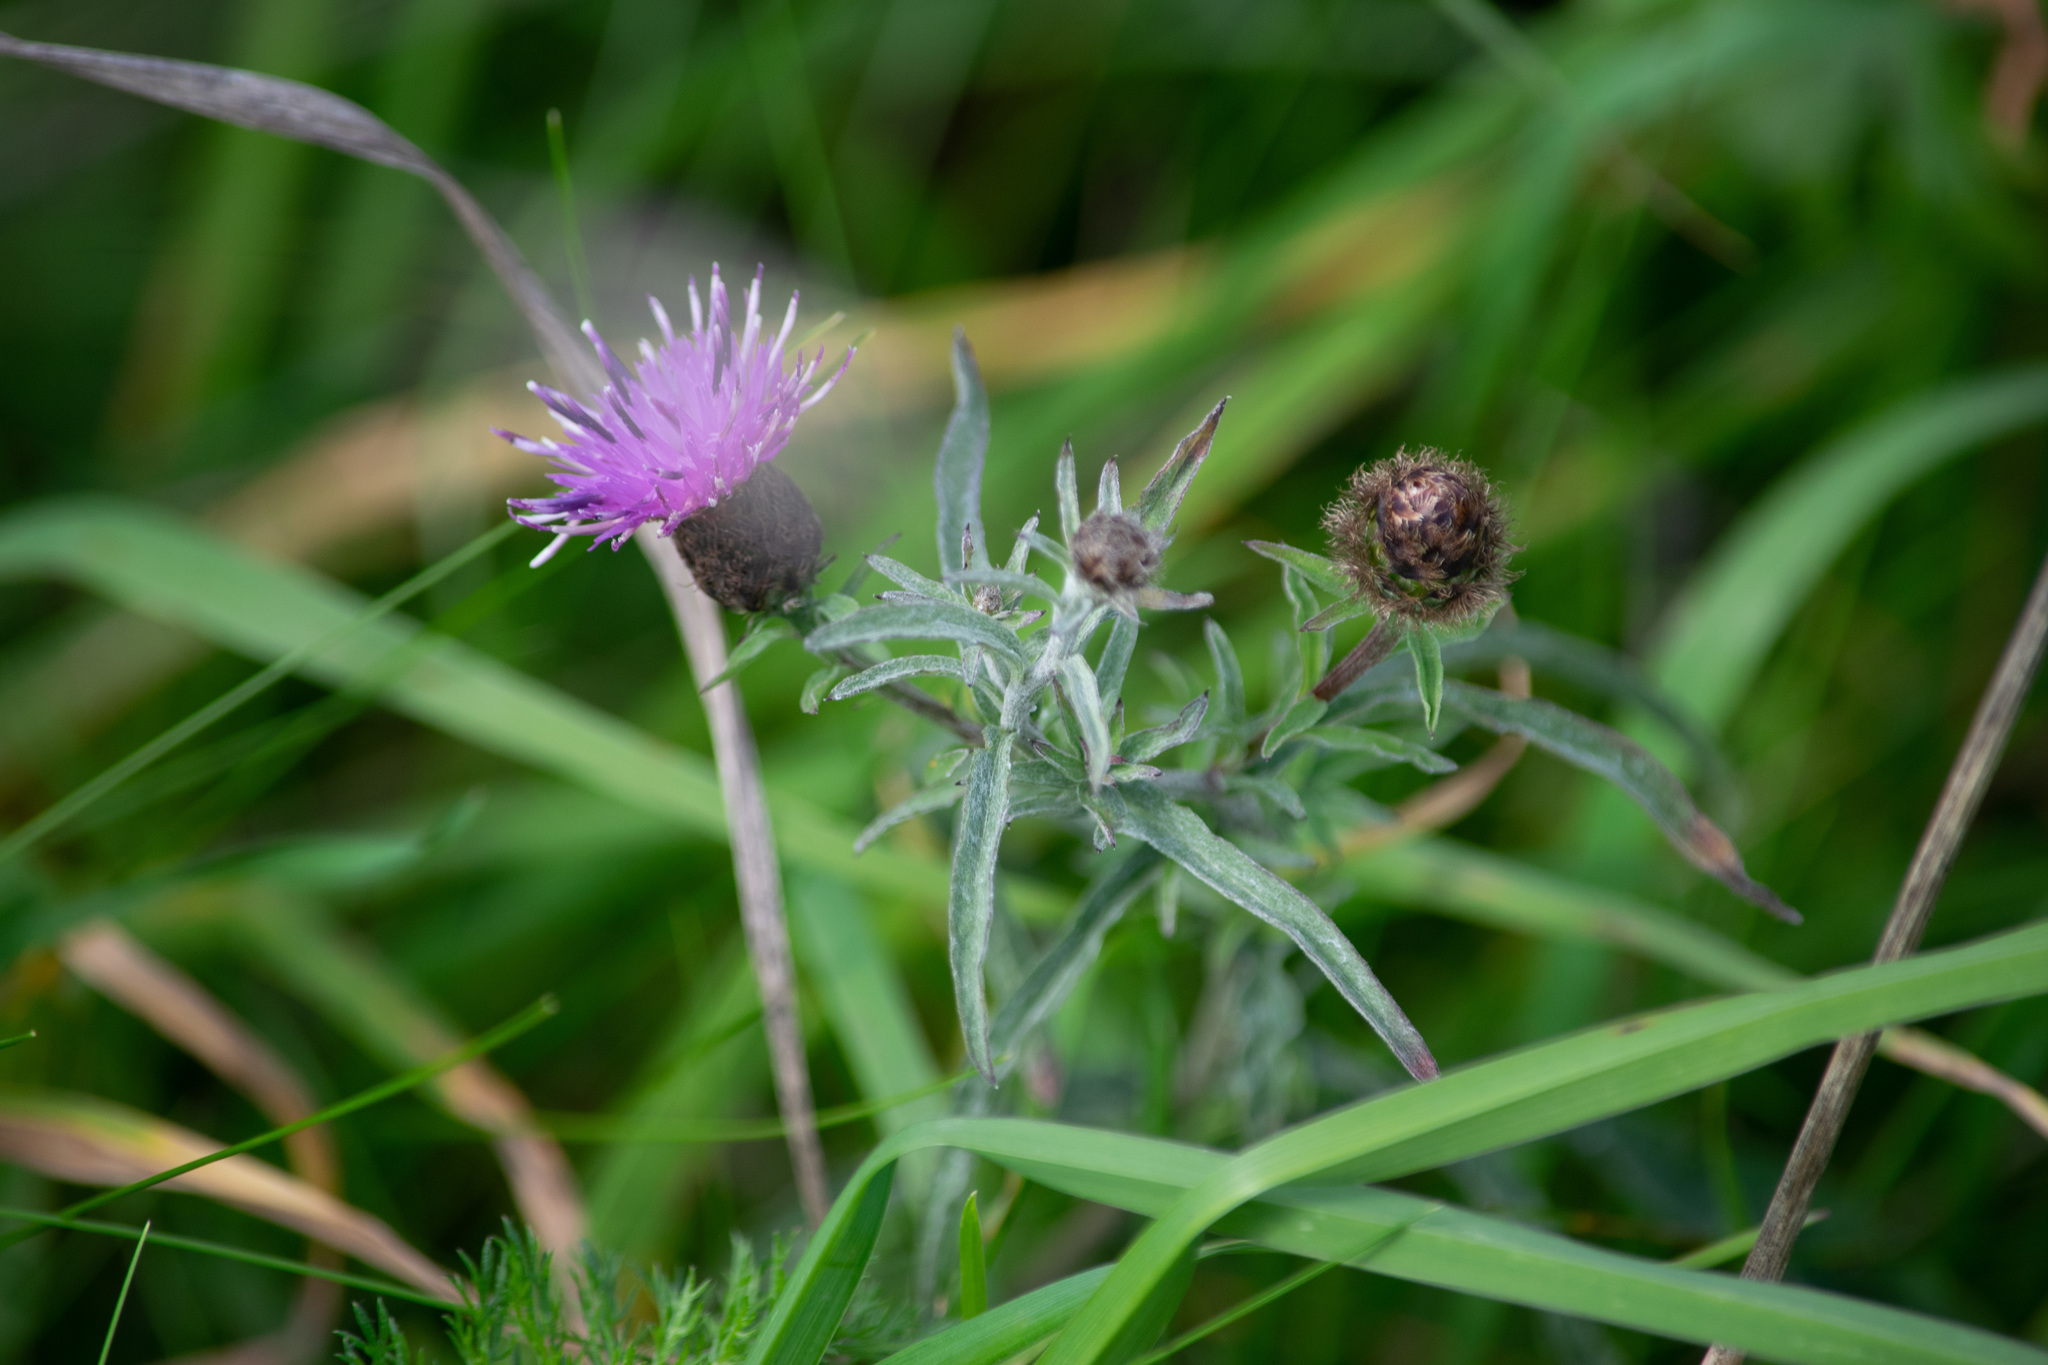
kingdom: Plantae
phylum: Tracheophyta
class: Magnoliopsida
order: Asterales
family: Asteraceae
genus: Centaurea
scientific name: Centaurea nigra
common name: Lesser knapweed
